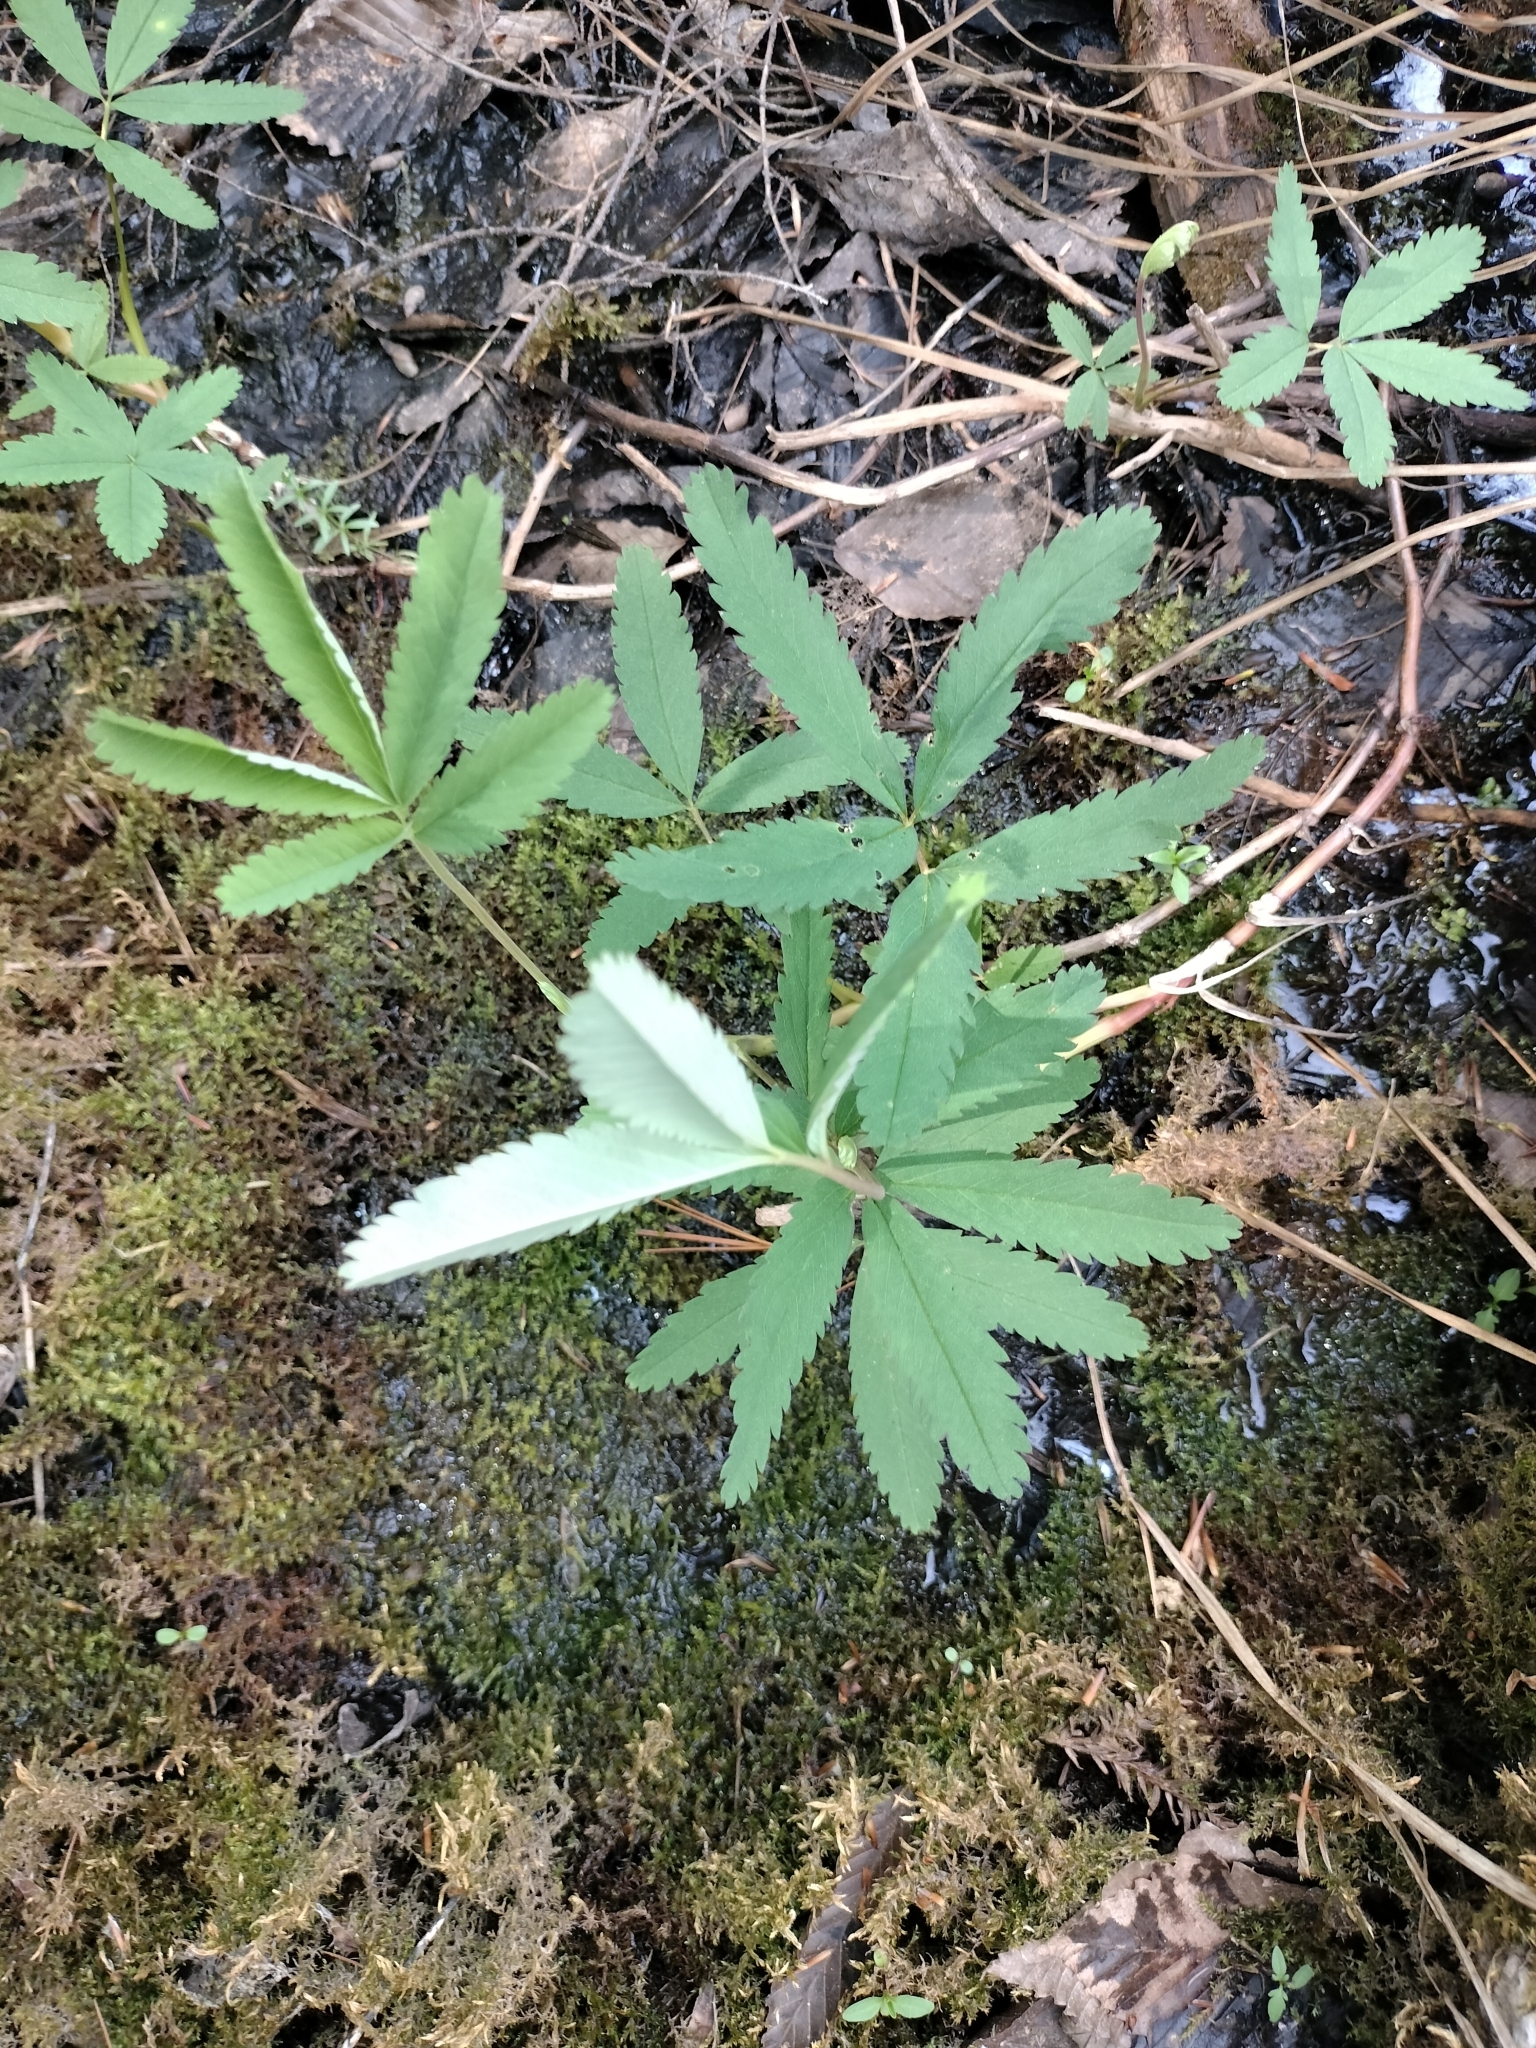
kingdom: Plantae
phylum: Tracheophyta
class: Magnoliopsida
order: Rosales
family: Rosaceae
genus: Comarum
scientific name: Comarum palustre
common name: Marsh cinquefoil
